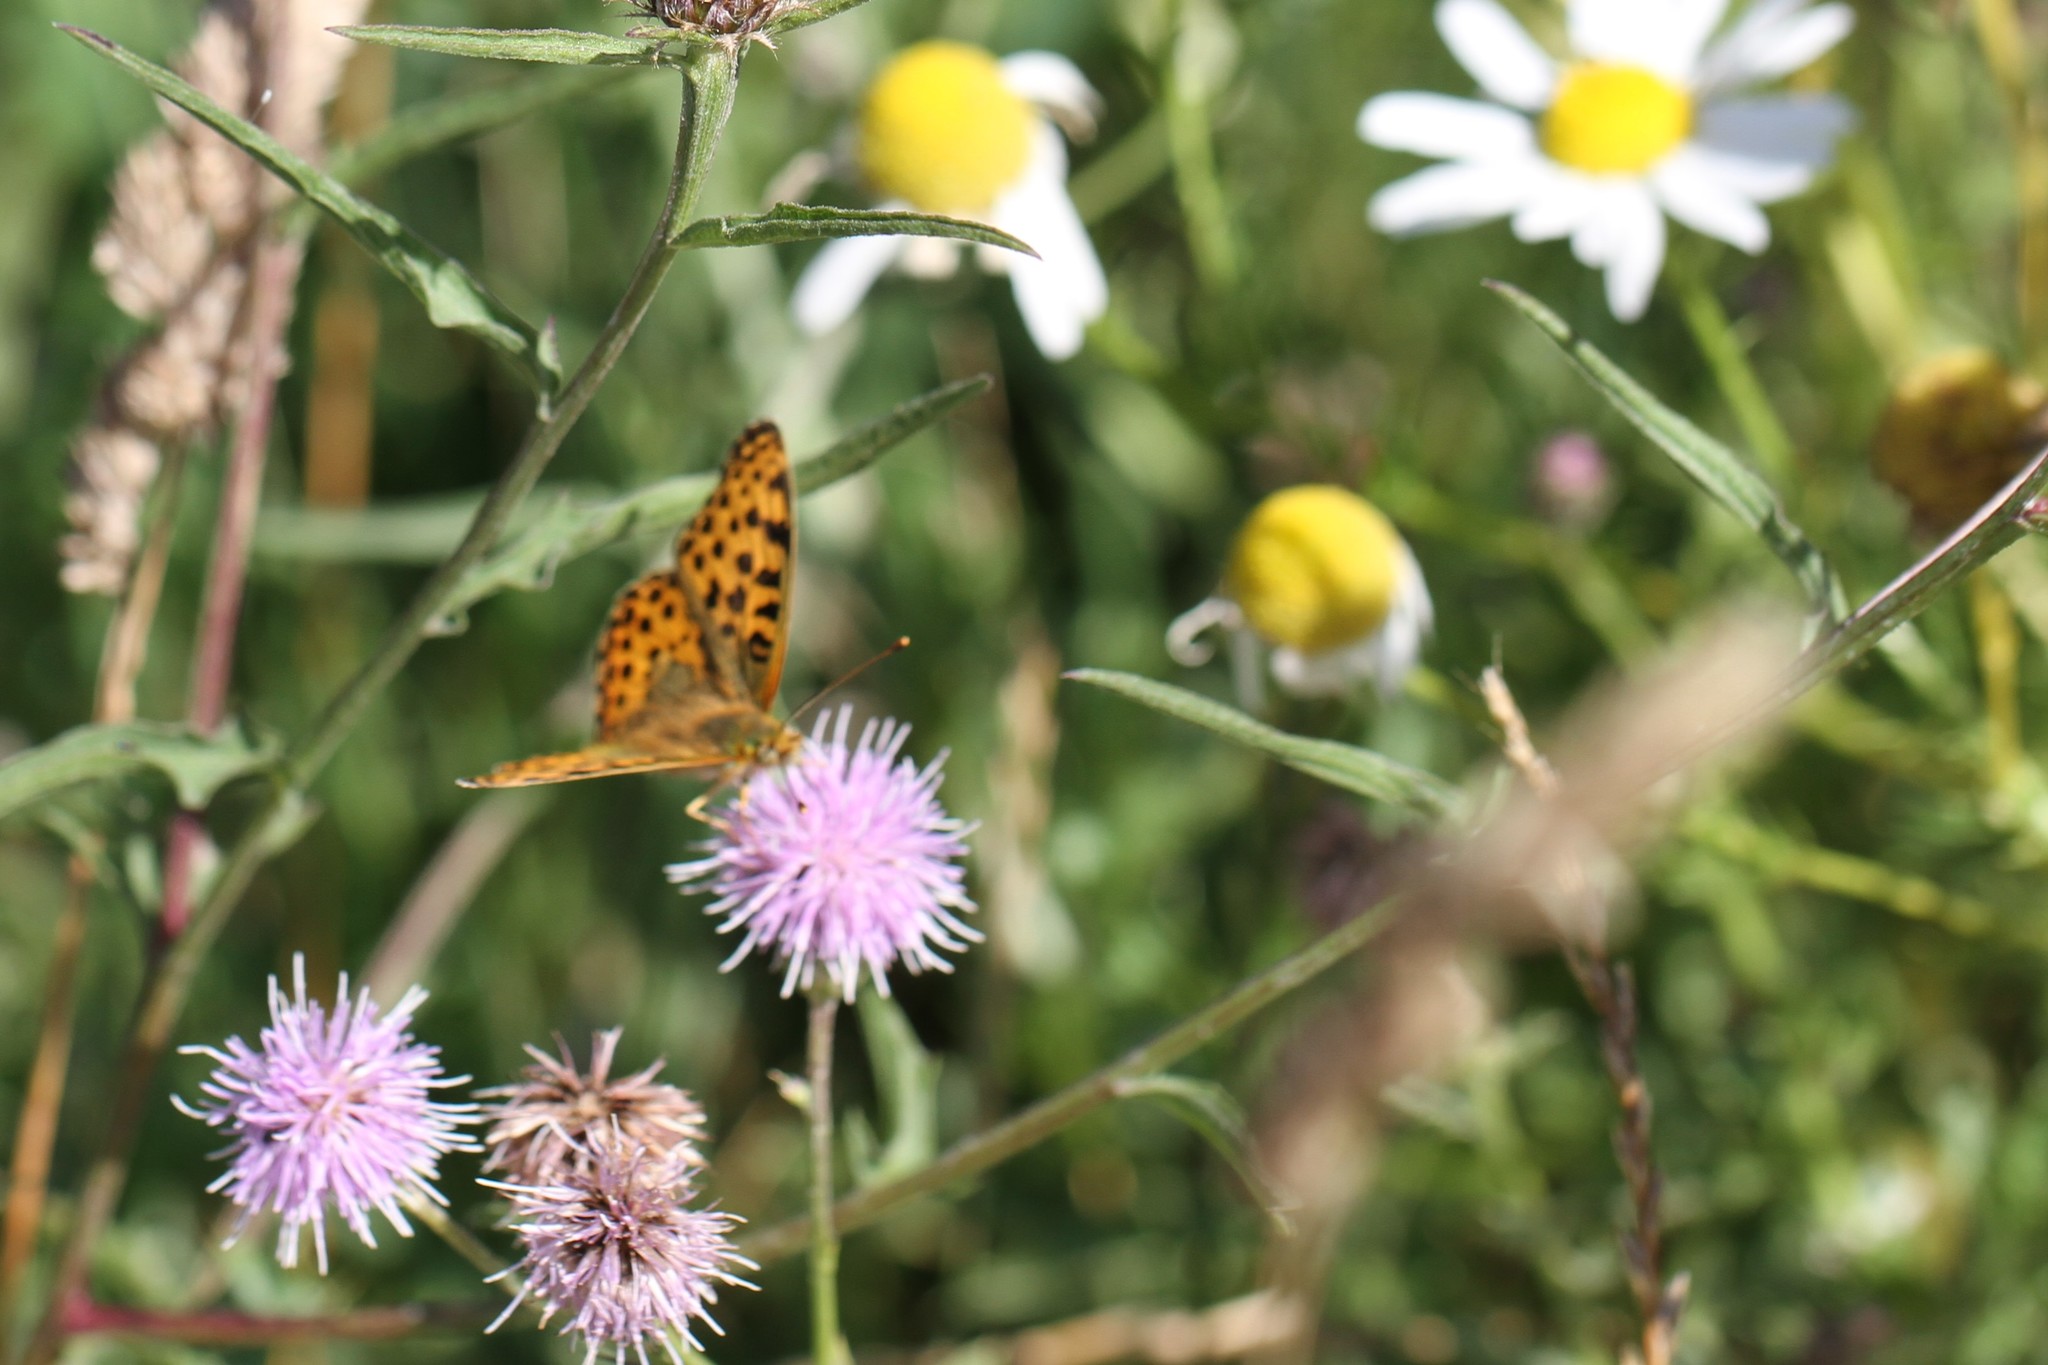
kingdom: Animalia
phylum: Arthropoda
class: Insecta
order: Lepidoptera
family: Nymphalidae
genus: Issoria
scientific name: Issoria lathonia
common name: Queen of spain fritillary
